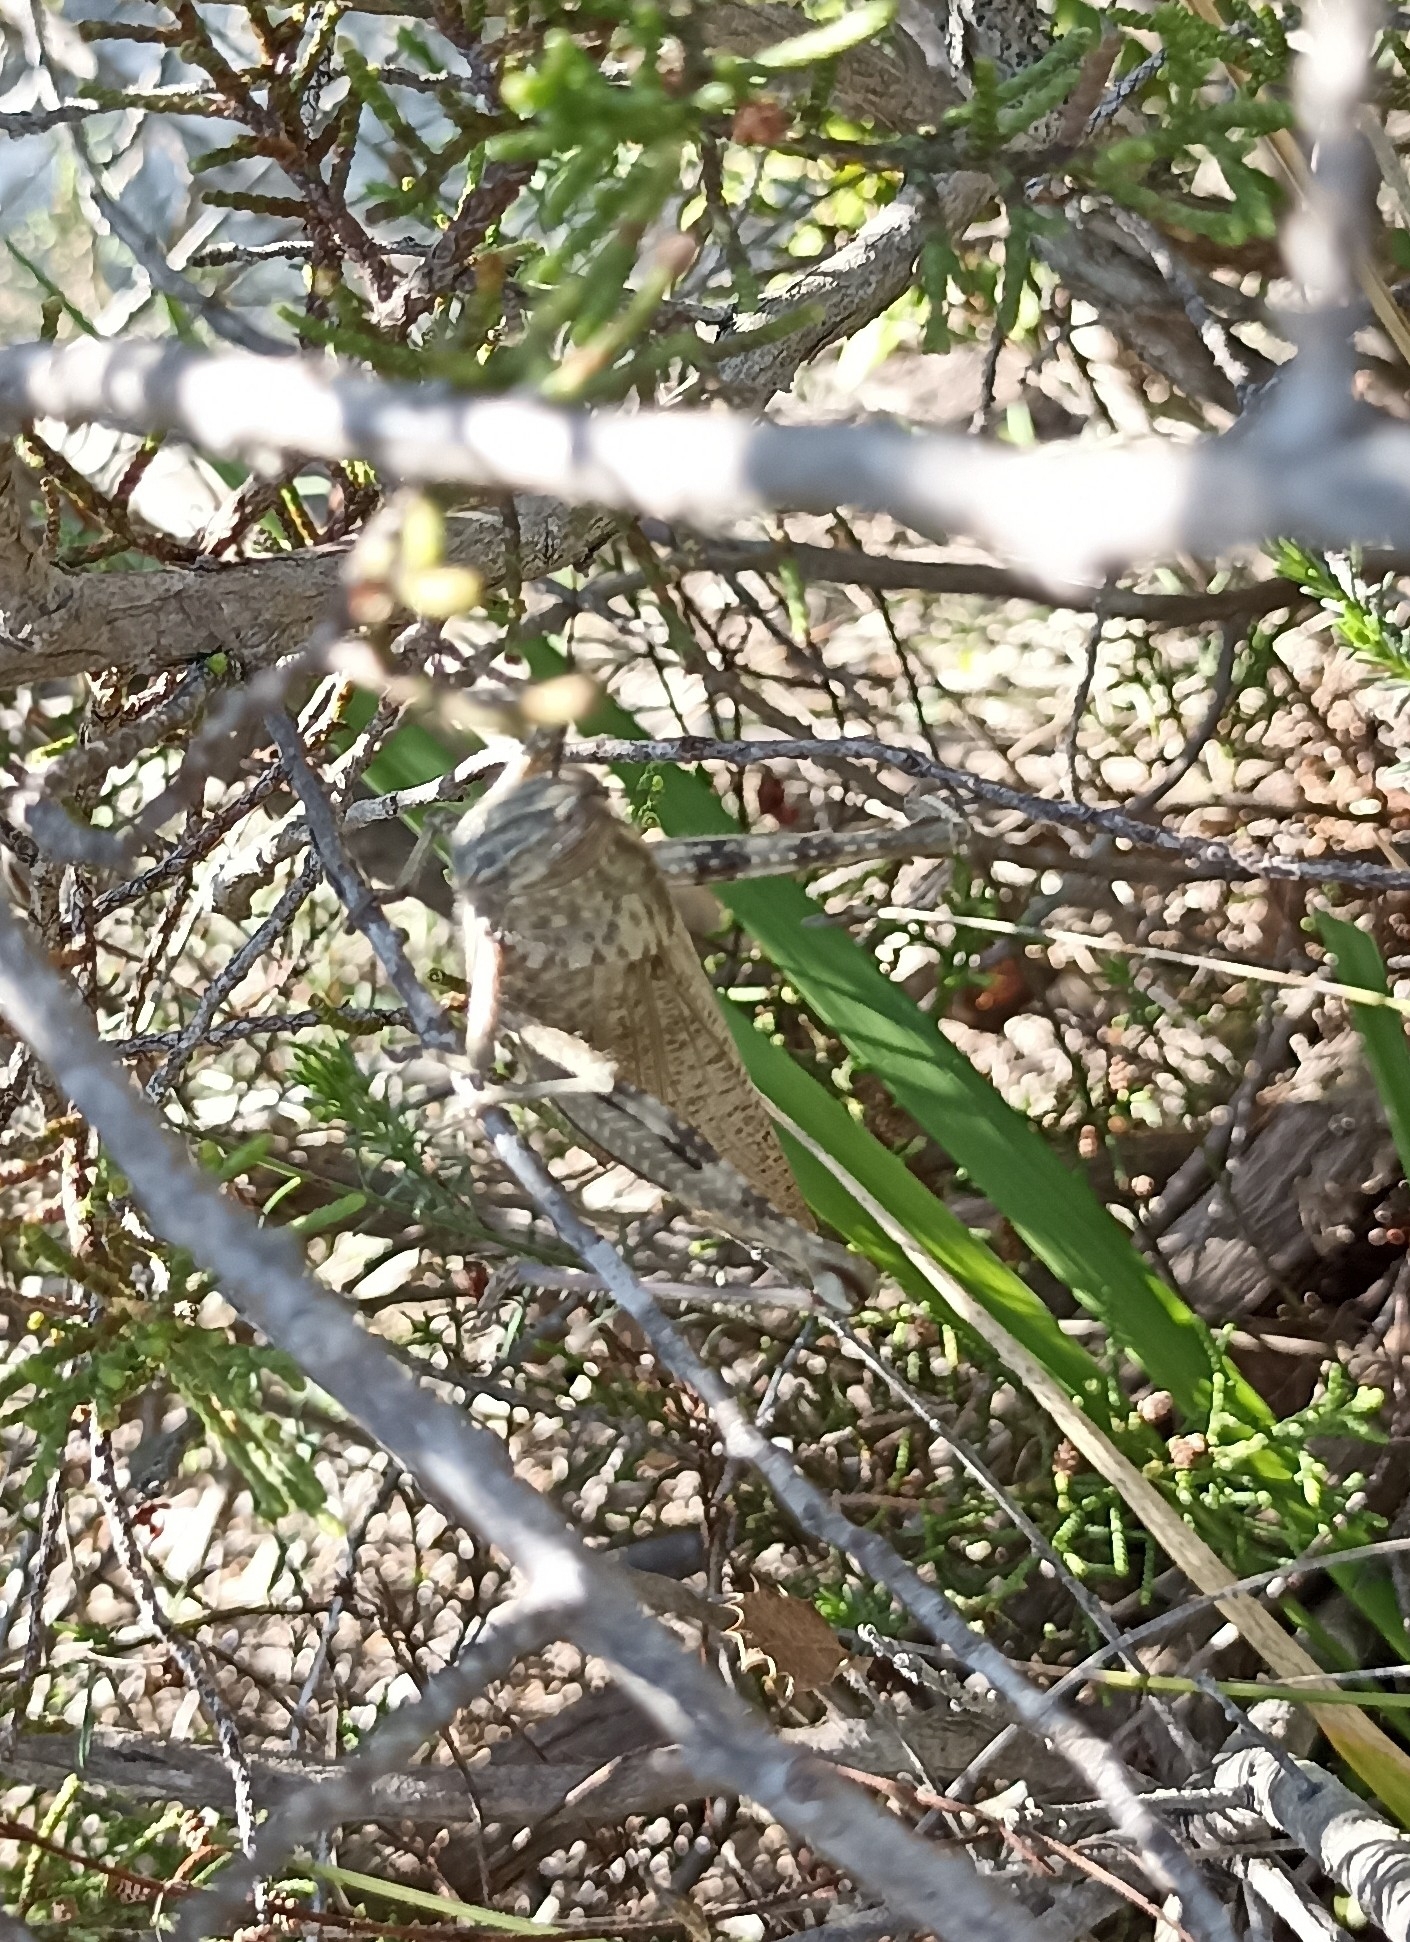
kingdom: Animalia
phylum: Arthropoda
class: Insecta
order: Orthoptera
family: Acrididae
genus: Anacridium
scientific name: Anacridium aegyptium
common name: Egyptian grasshopper
